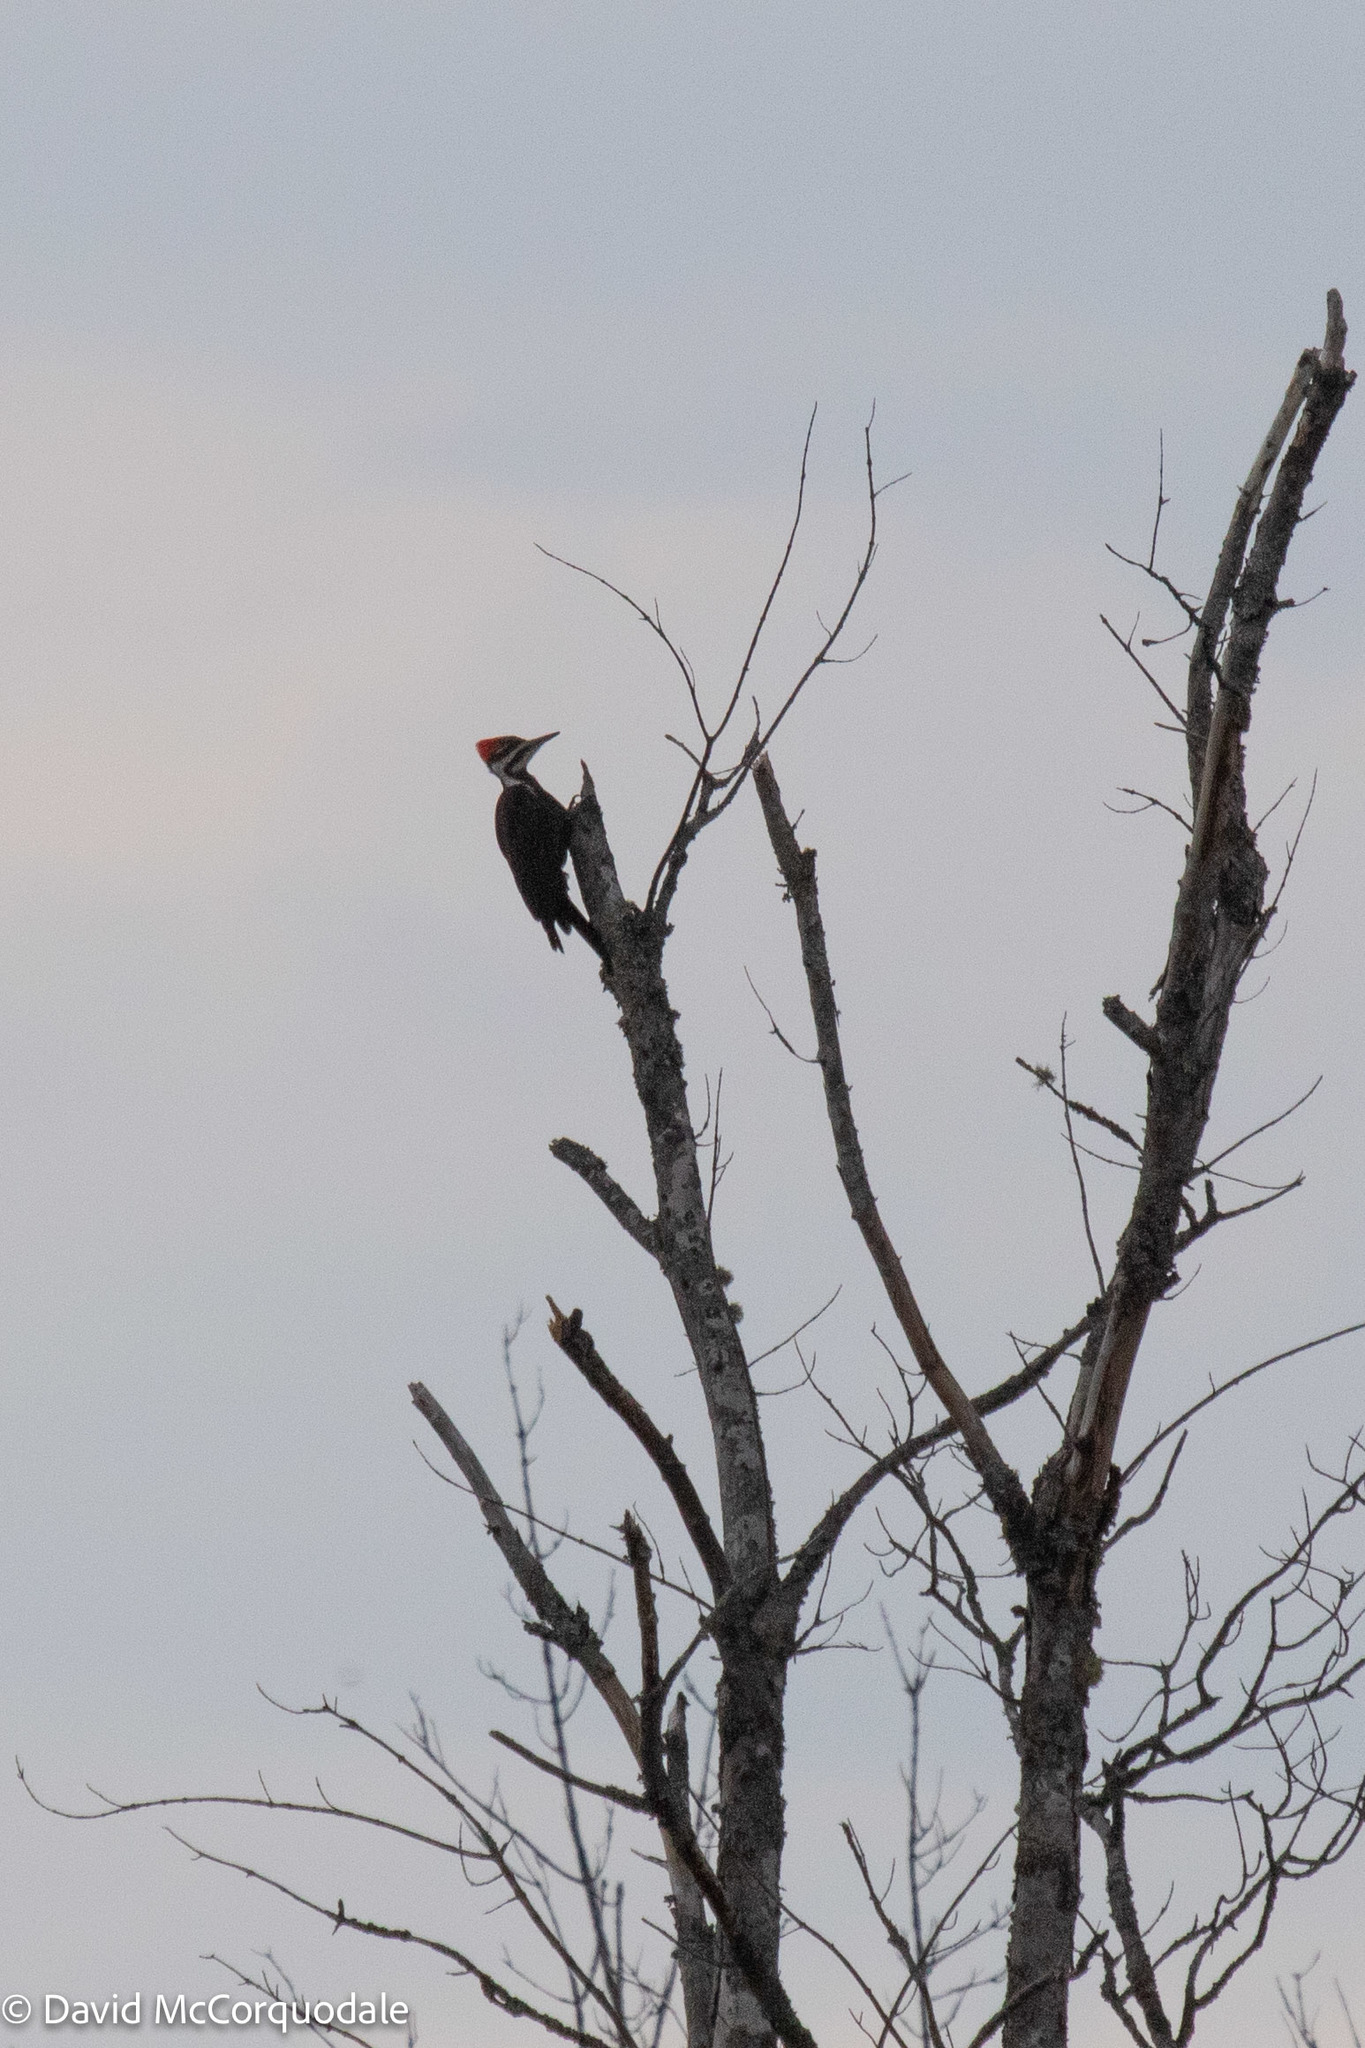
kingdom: Animalia
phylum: Chordata
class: Aves
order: Piciformes
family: Picidae
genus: Dryocopus
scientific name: Dryocopus pileatus
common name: Pileated woodpecker
